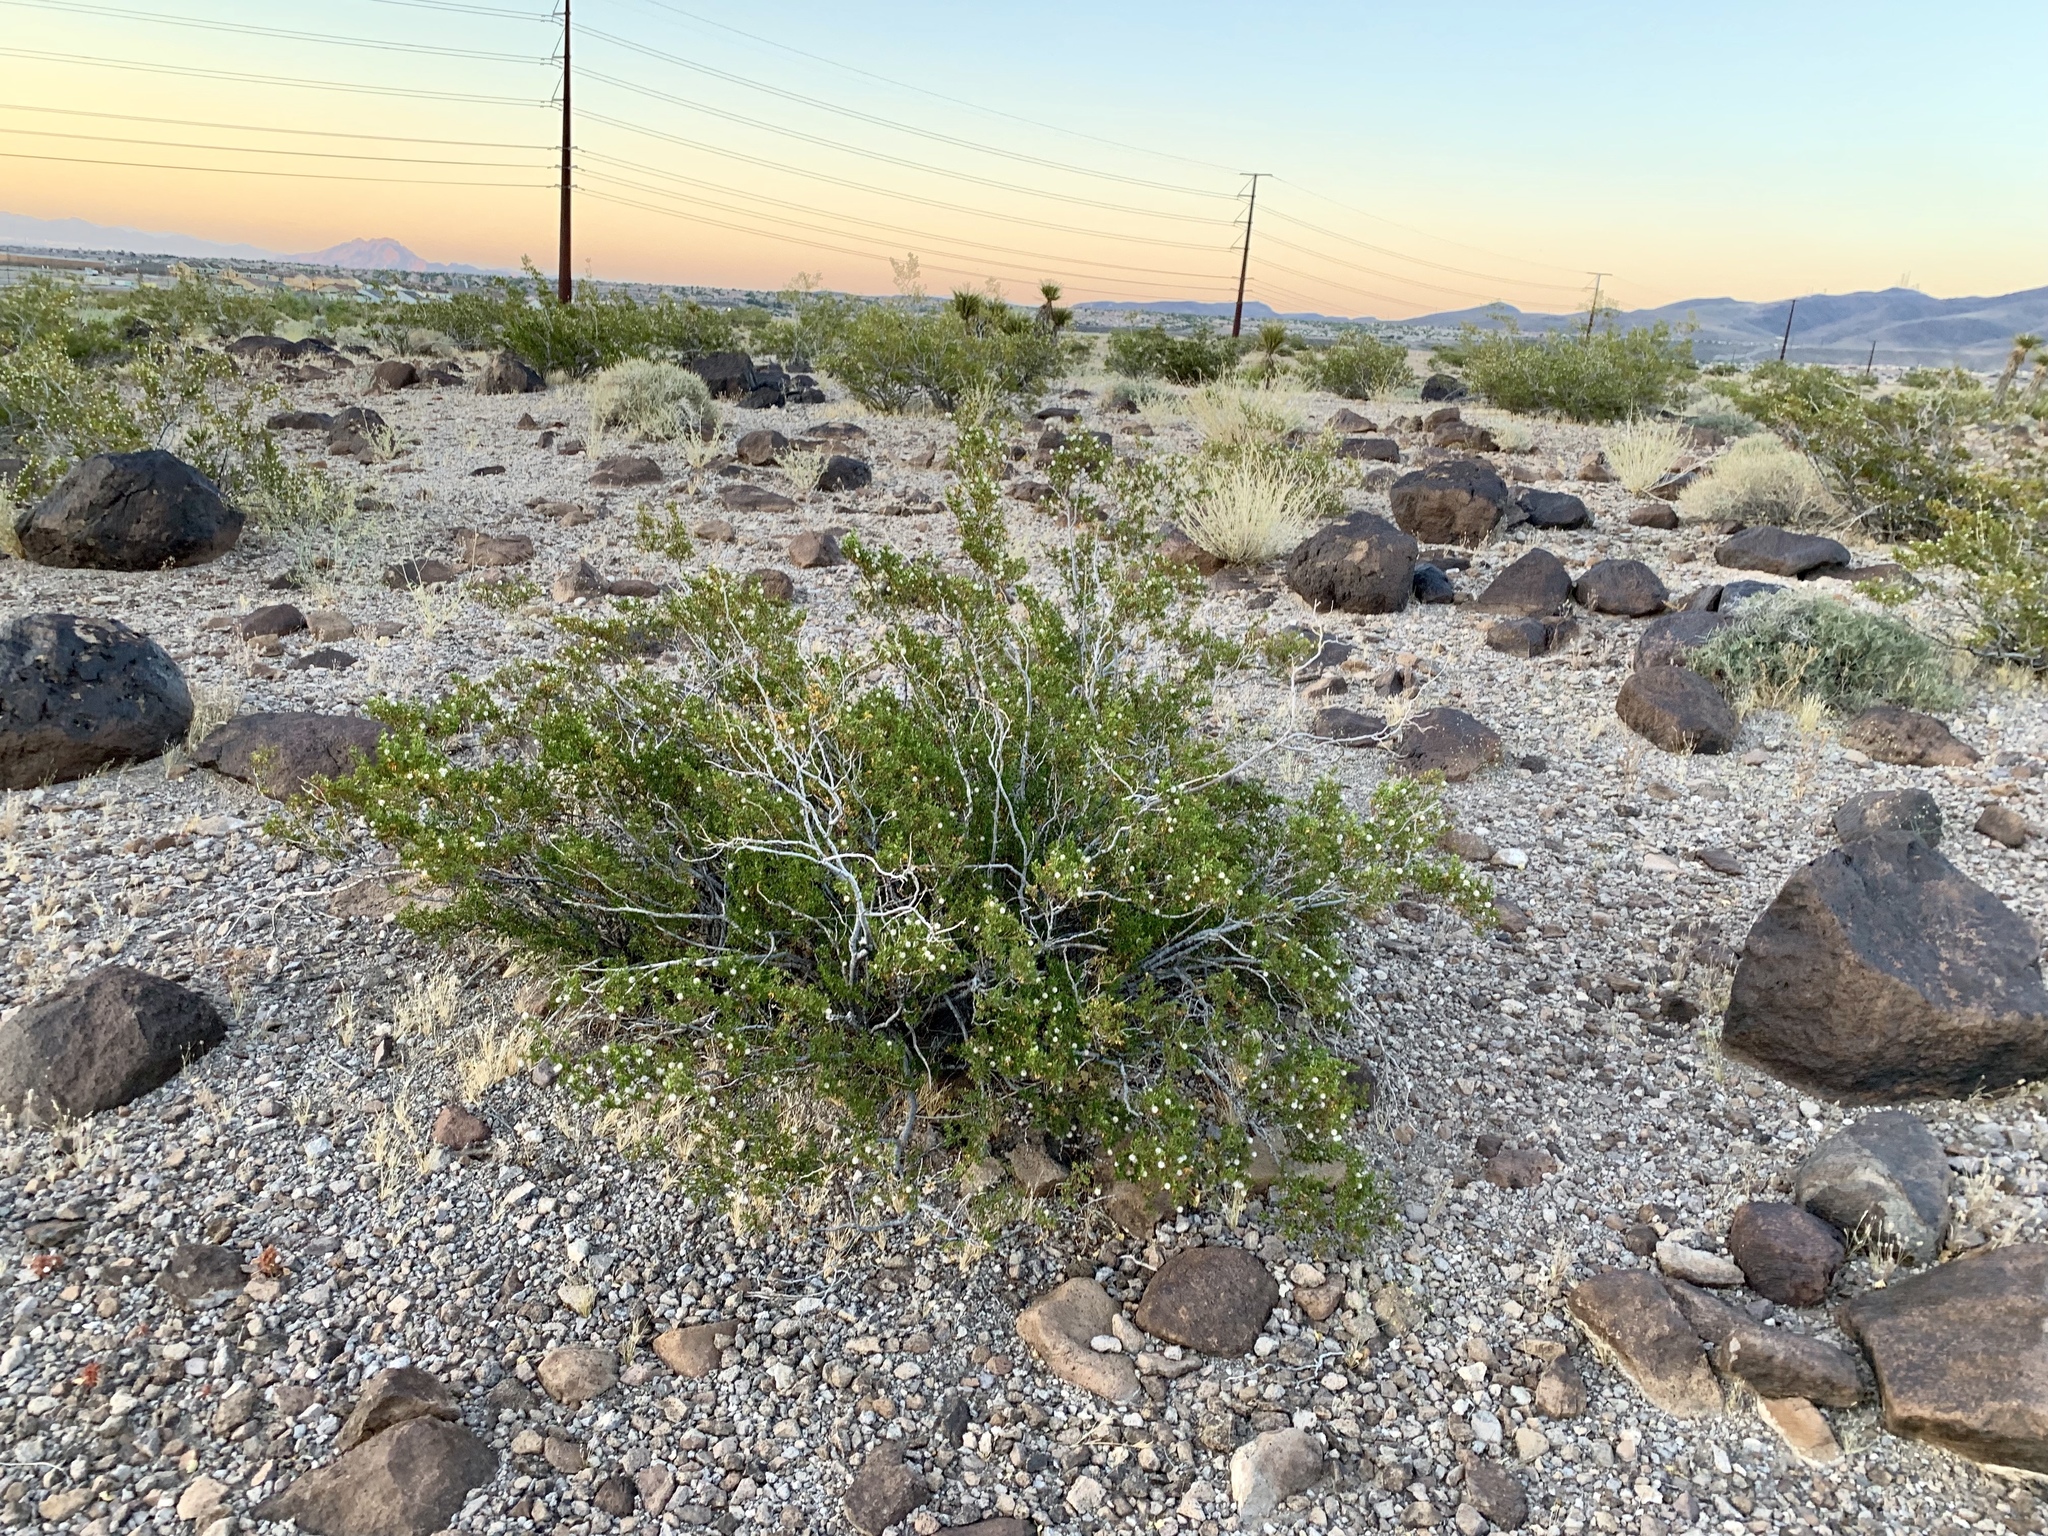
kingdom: Plantae
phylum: Tracheophyta
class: Magnoliopsida
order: Zygophyllales
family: Zygophyllaceae
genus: Larrea
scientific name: Larrea tridentata
